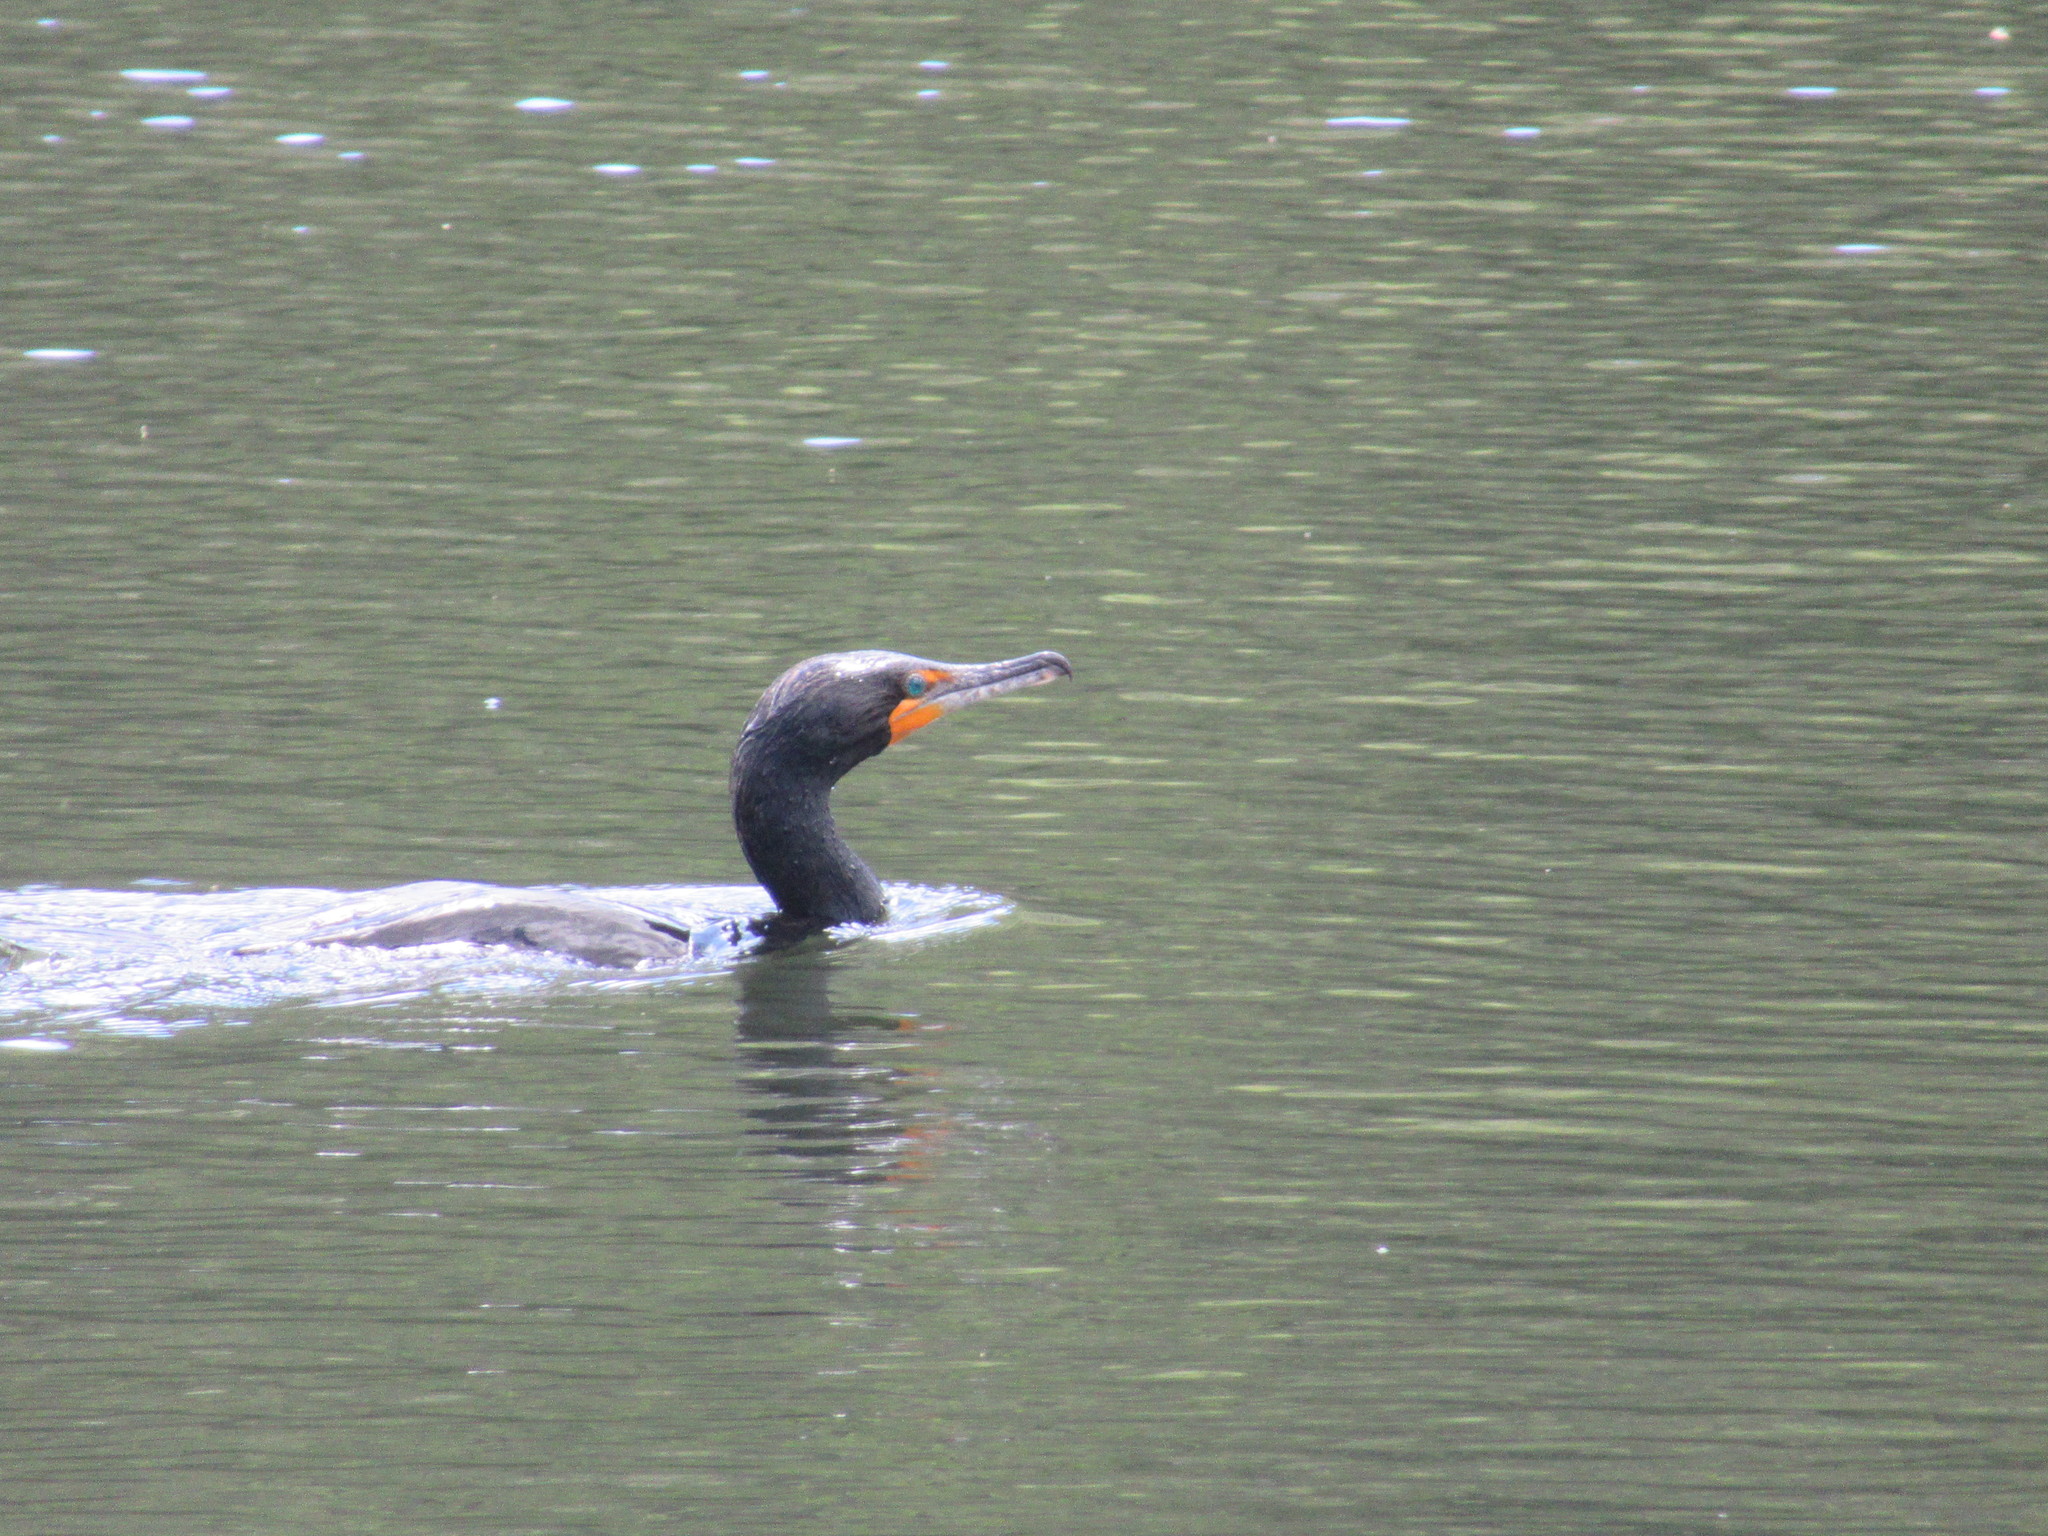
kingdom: Animalia
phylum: Chordata
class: Aves
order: Suliformes
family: Phalacrocoracidae
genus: Phalacrocorax
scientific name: Phalacrocorax auritus
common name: Double-crested cormorant
